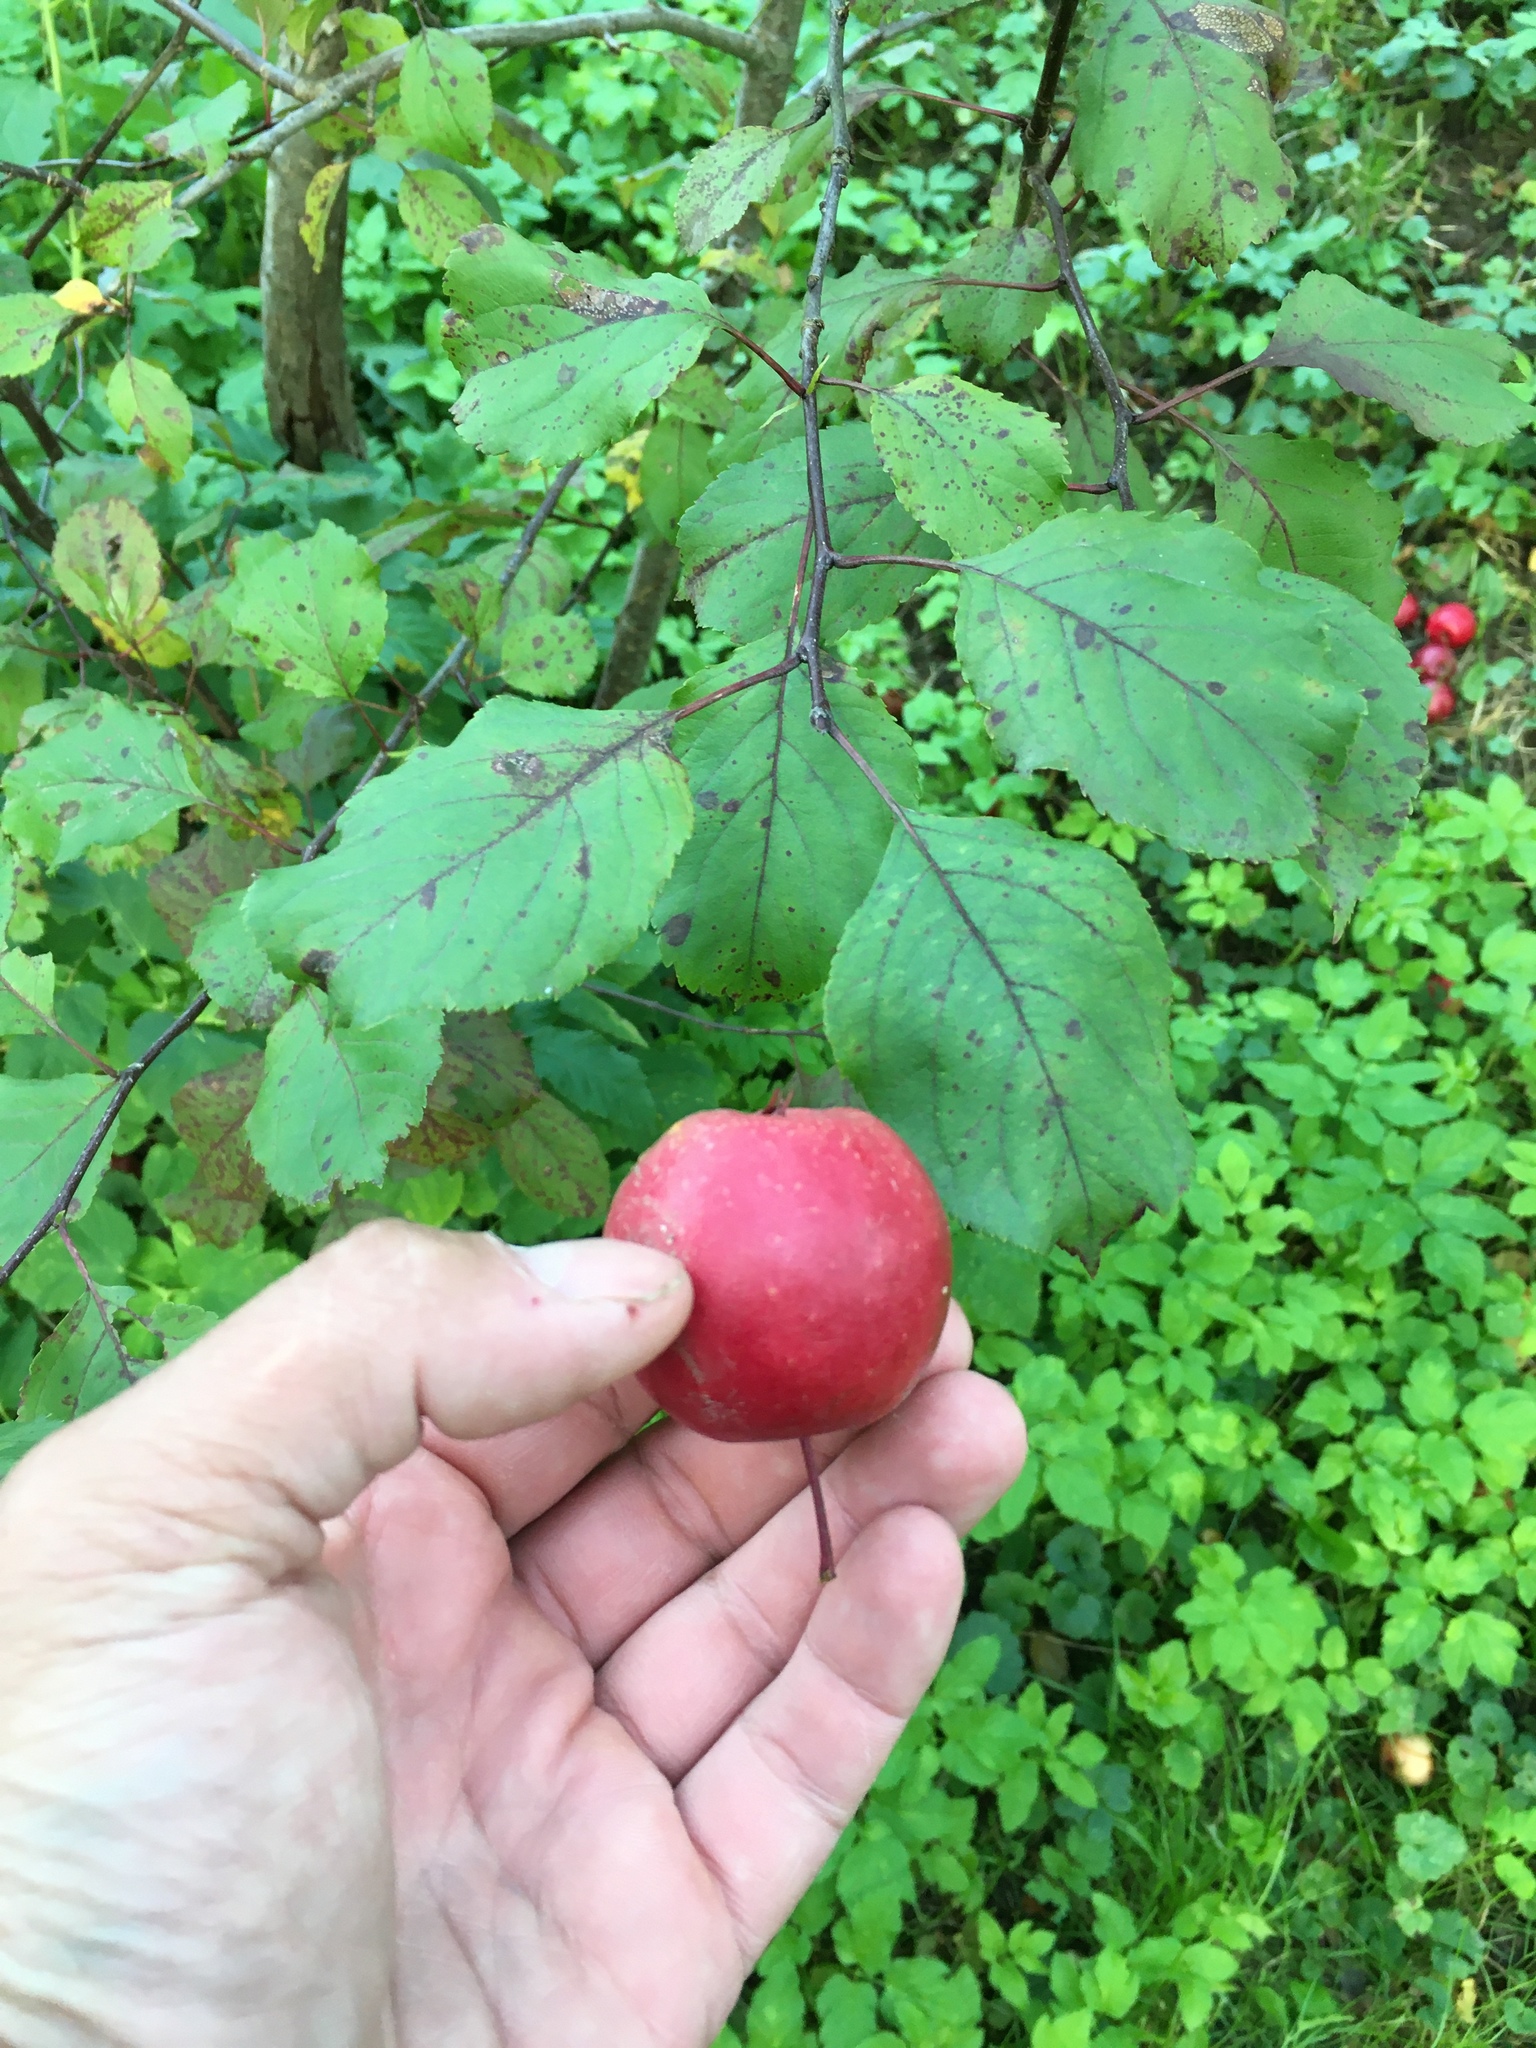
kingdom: Plantae
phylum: Tracheophyta
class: Magnoliopsida
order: Rosales
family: Rosaceae
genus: Malus
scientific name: Malus domestica
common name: Apple
